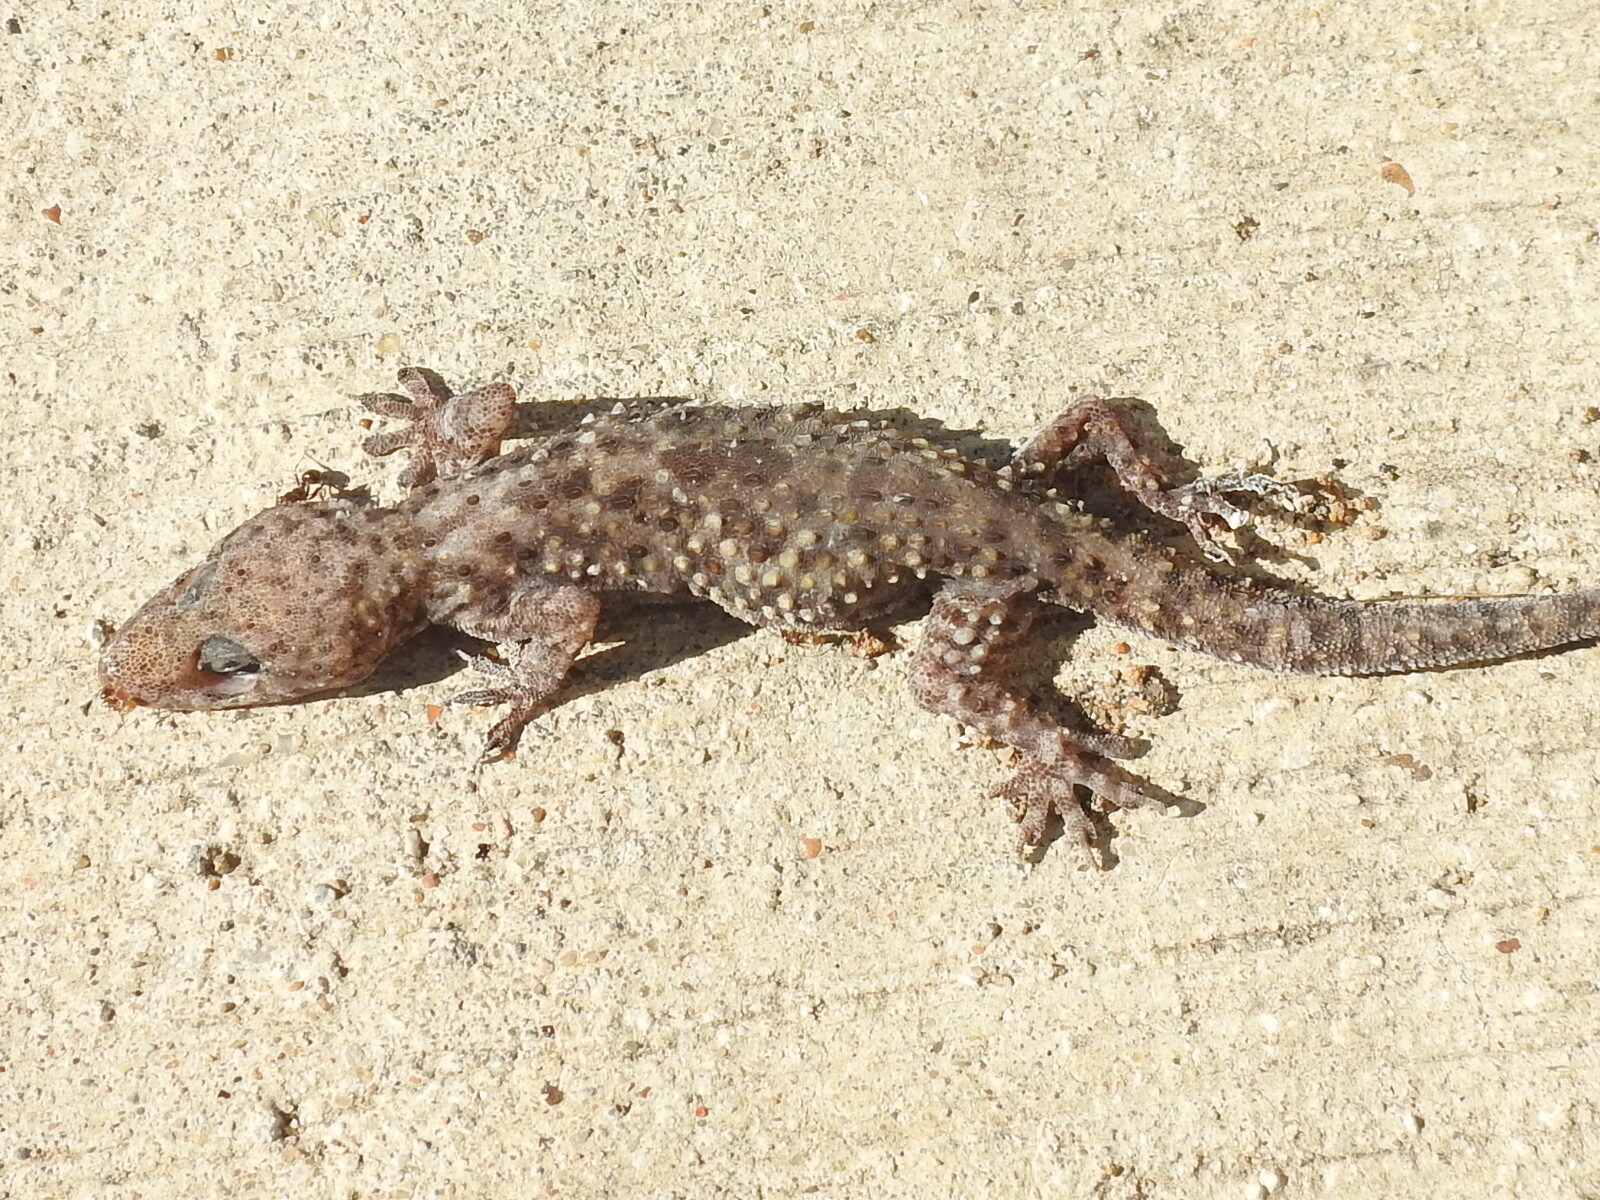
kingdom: Animalia
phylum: Chordata
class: Squamata
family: Gekkonidae
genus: Hemidactylus
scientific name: Hemidactylus turcicus
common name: Turkish gecko
